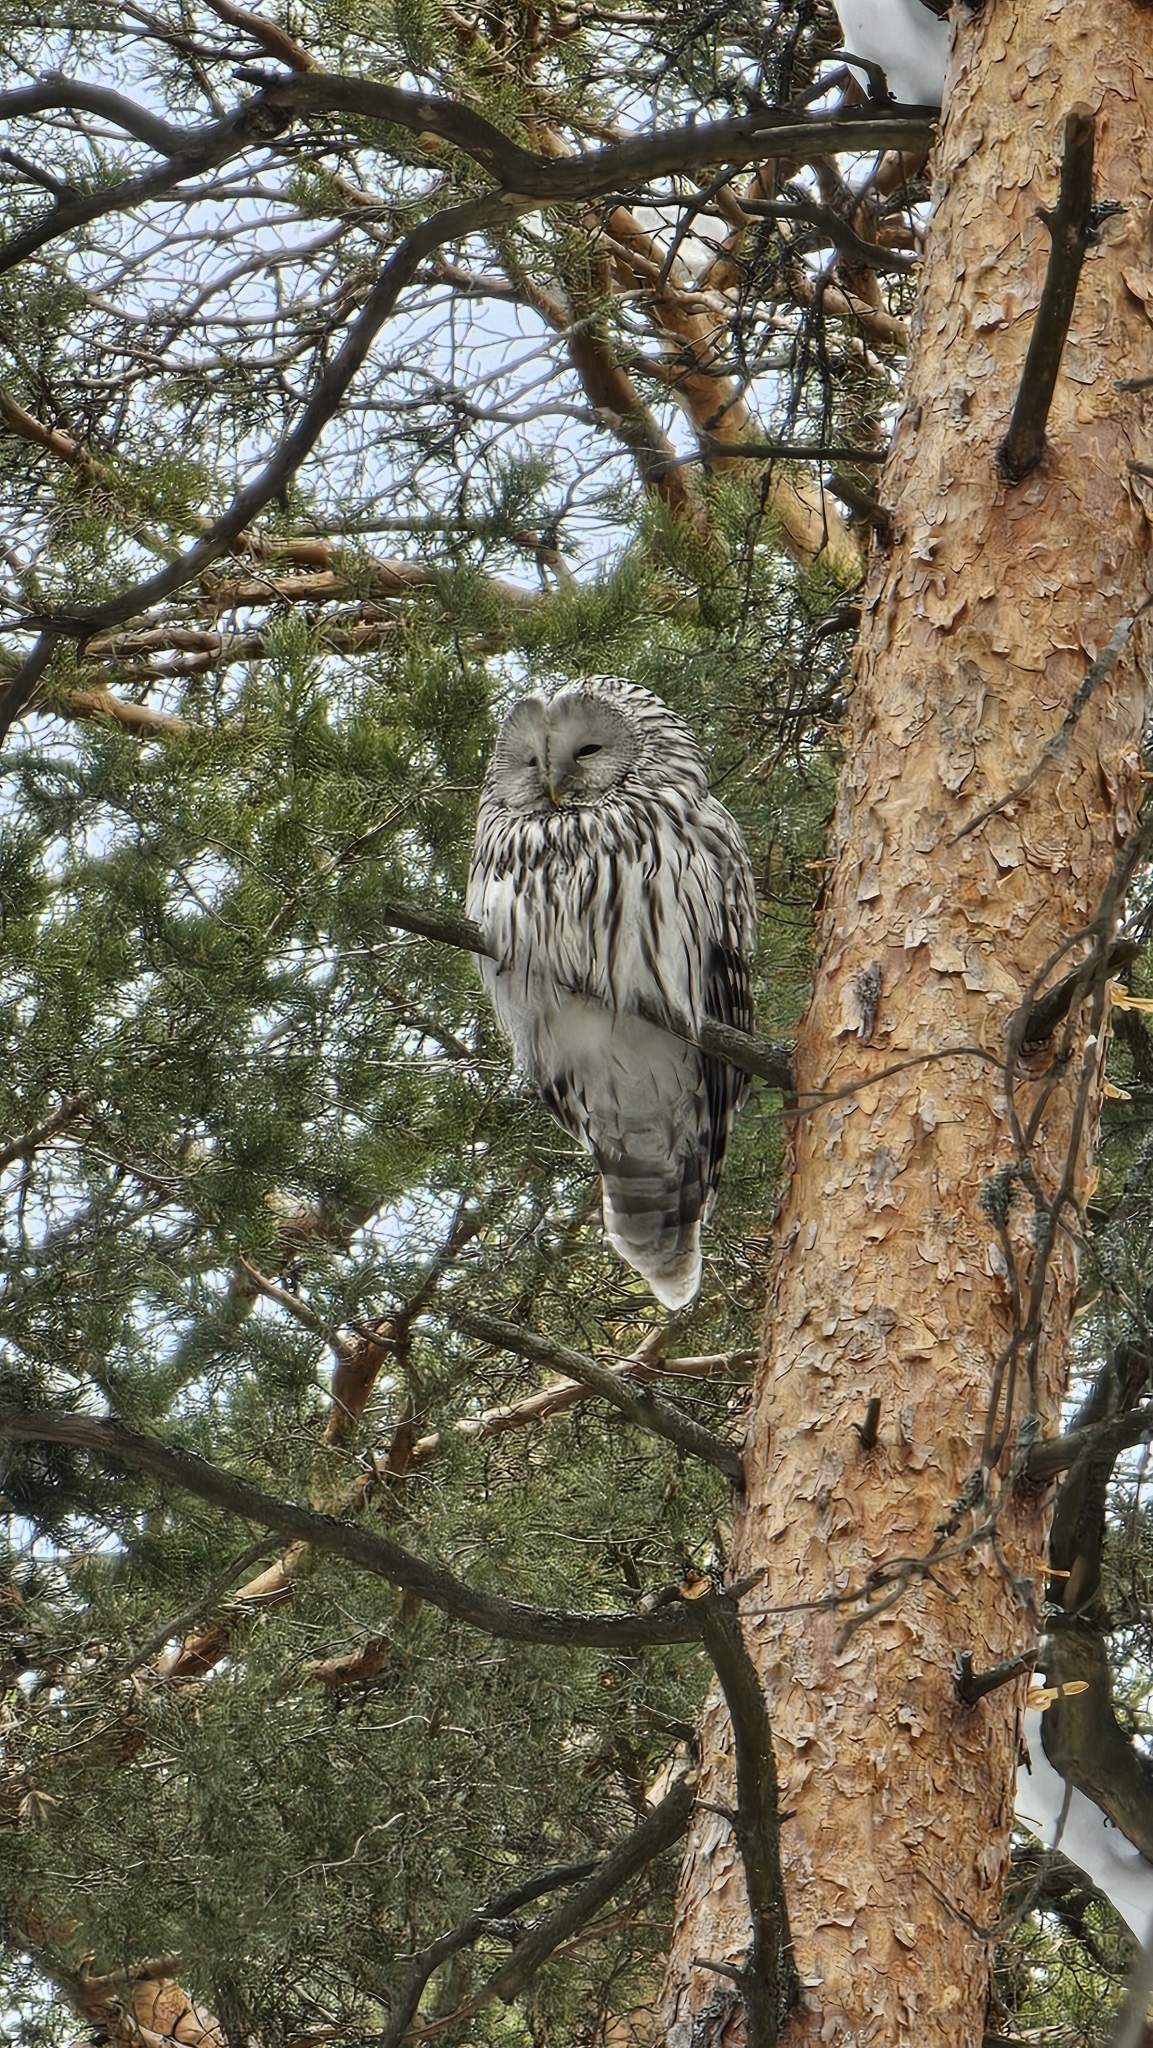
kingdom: Animalia
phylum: Chordata
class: Aves
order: Strigiformes
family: Strigidae
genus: Strix
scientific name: Strix uralensis
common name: Ural owl
